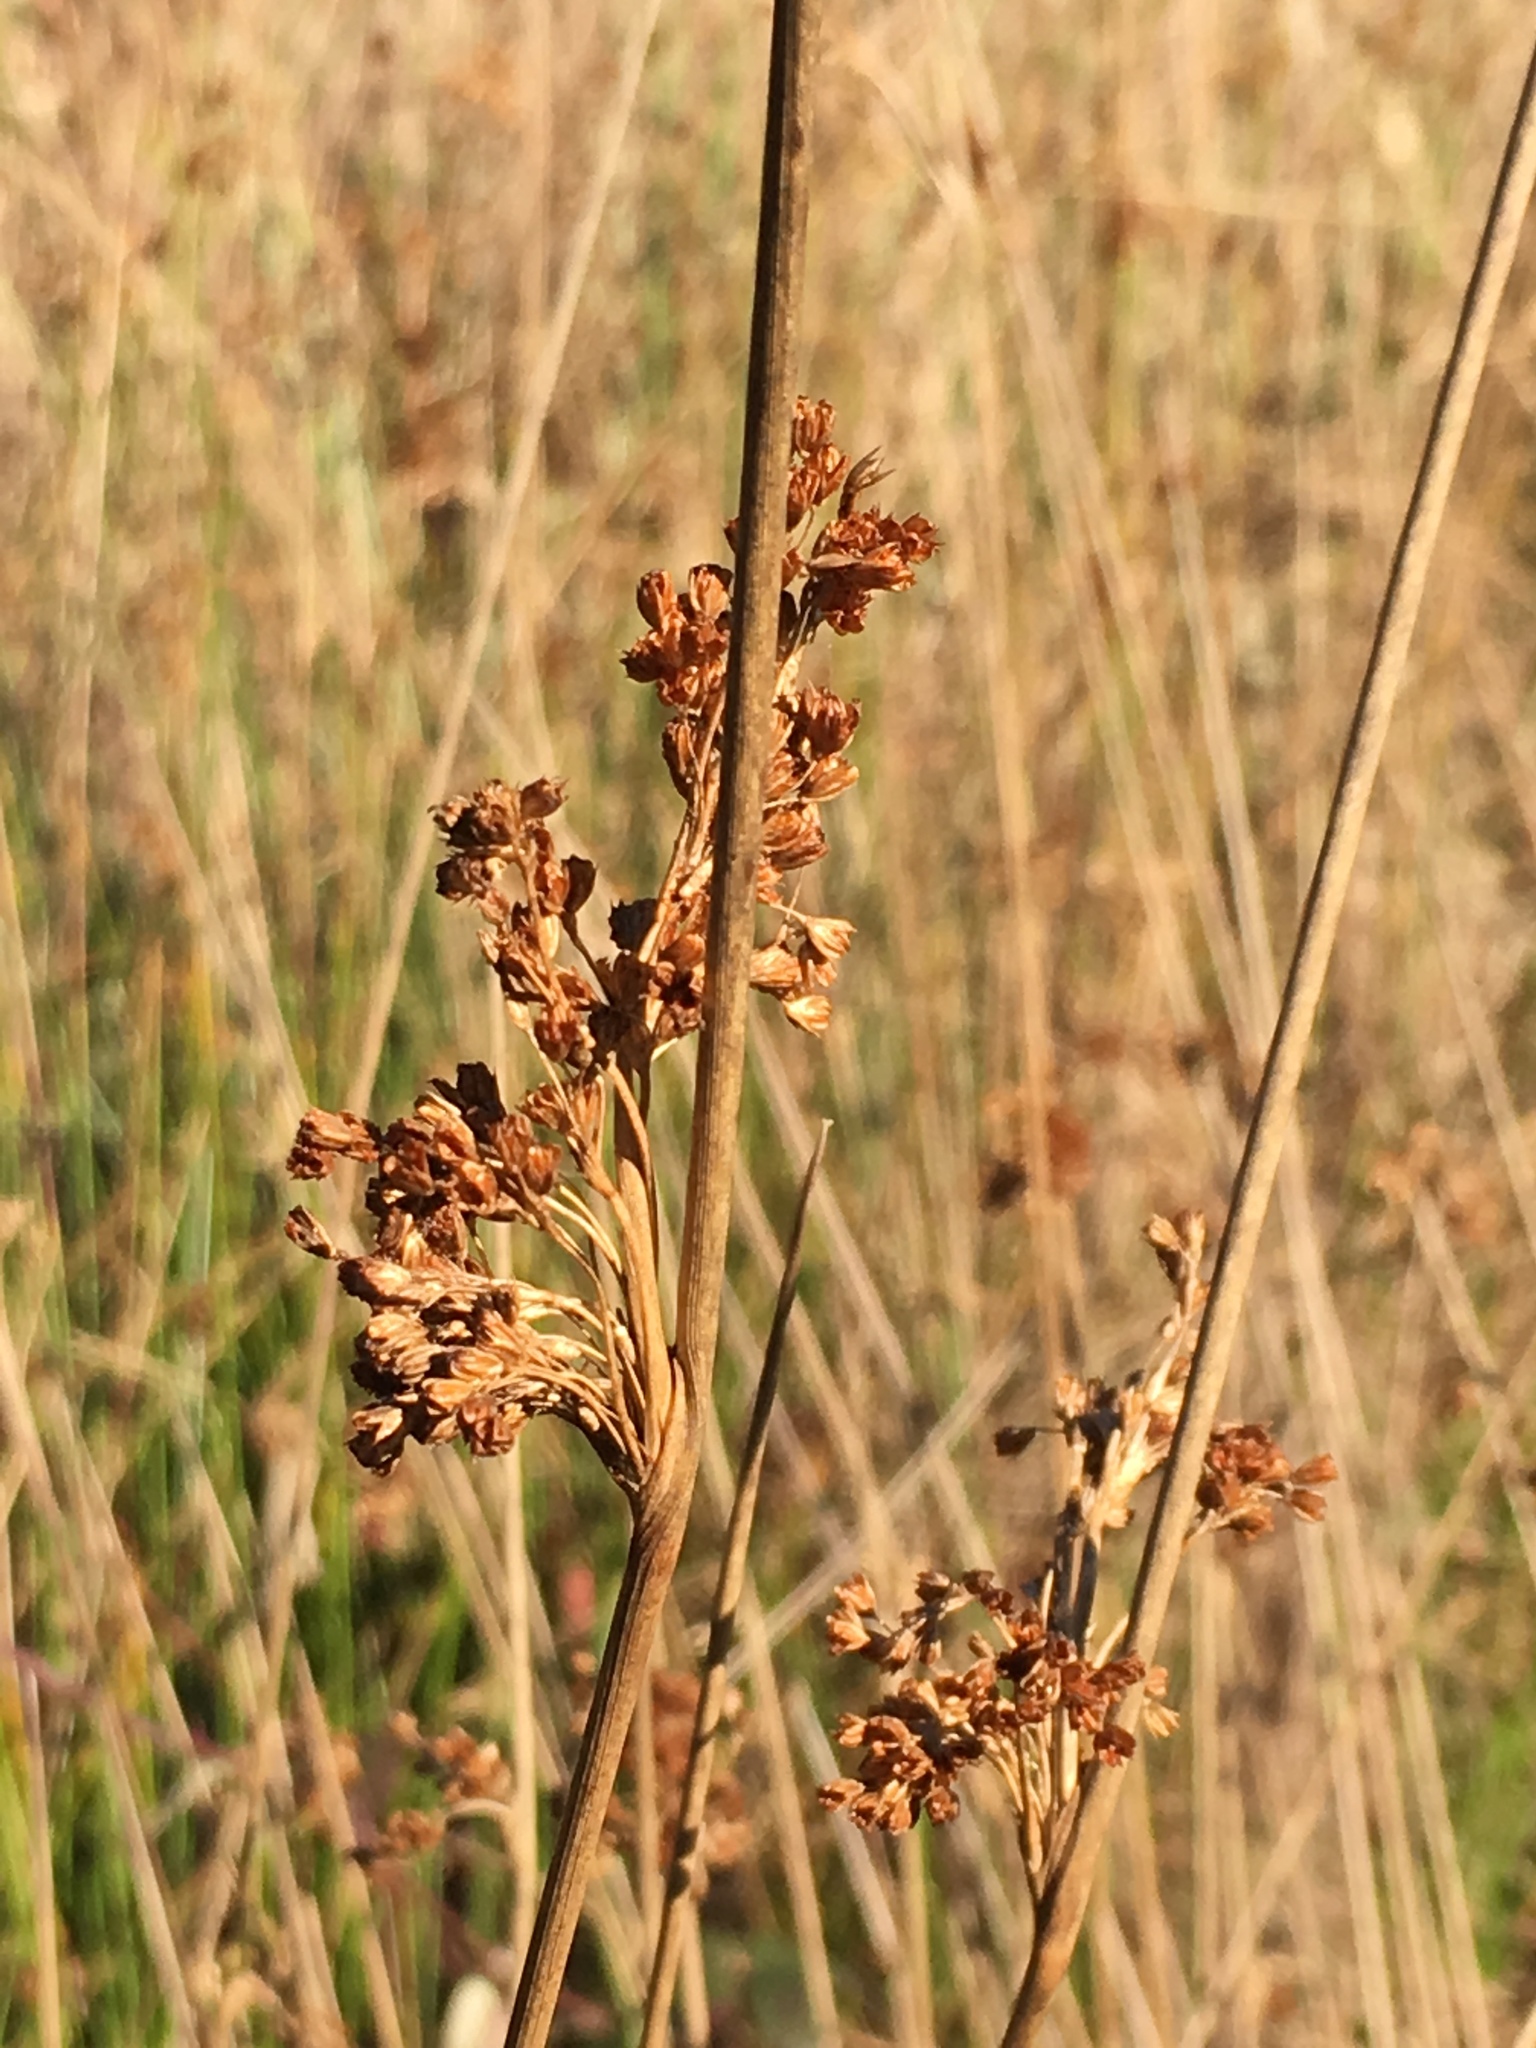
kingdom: Plantae
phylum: Tracheophyta
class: Liliopsida
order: Poales
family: Juncaceae
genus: Juncus
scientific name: Juncus effusus
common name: Soft rush
